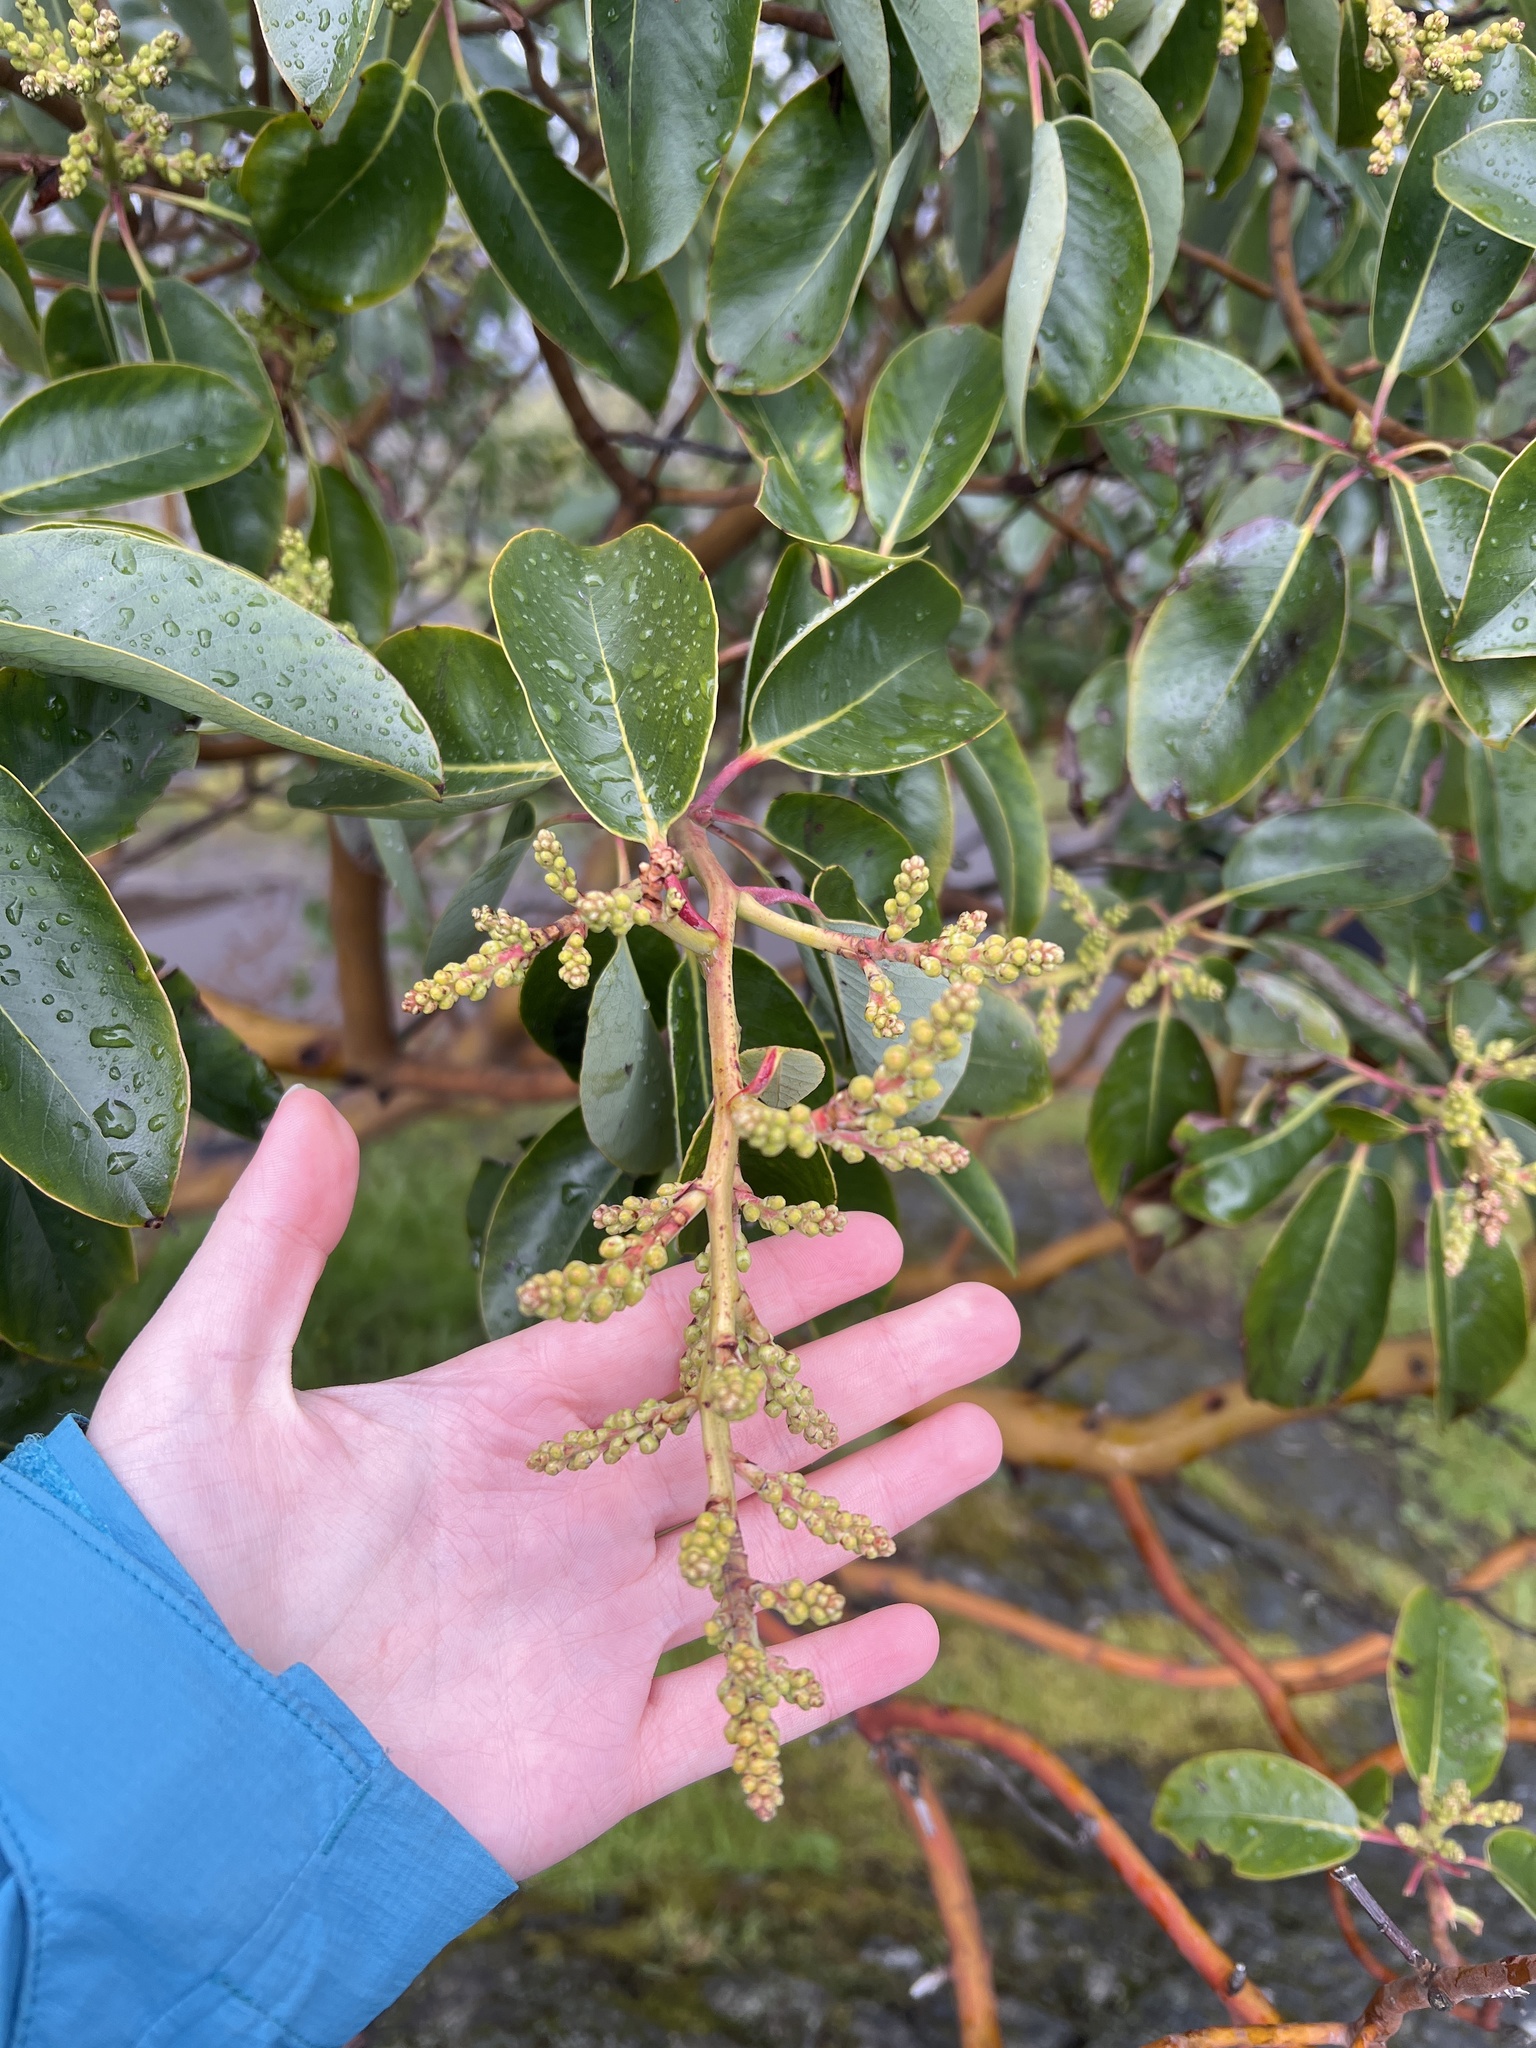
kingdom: Plantae
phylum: Tracheophyta
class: Magnoliopsida
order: Ericales
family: Ericaceae
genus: Arbutus
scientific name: Arbutus menziesii
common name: Pacific madrone
